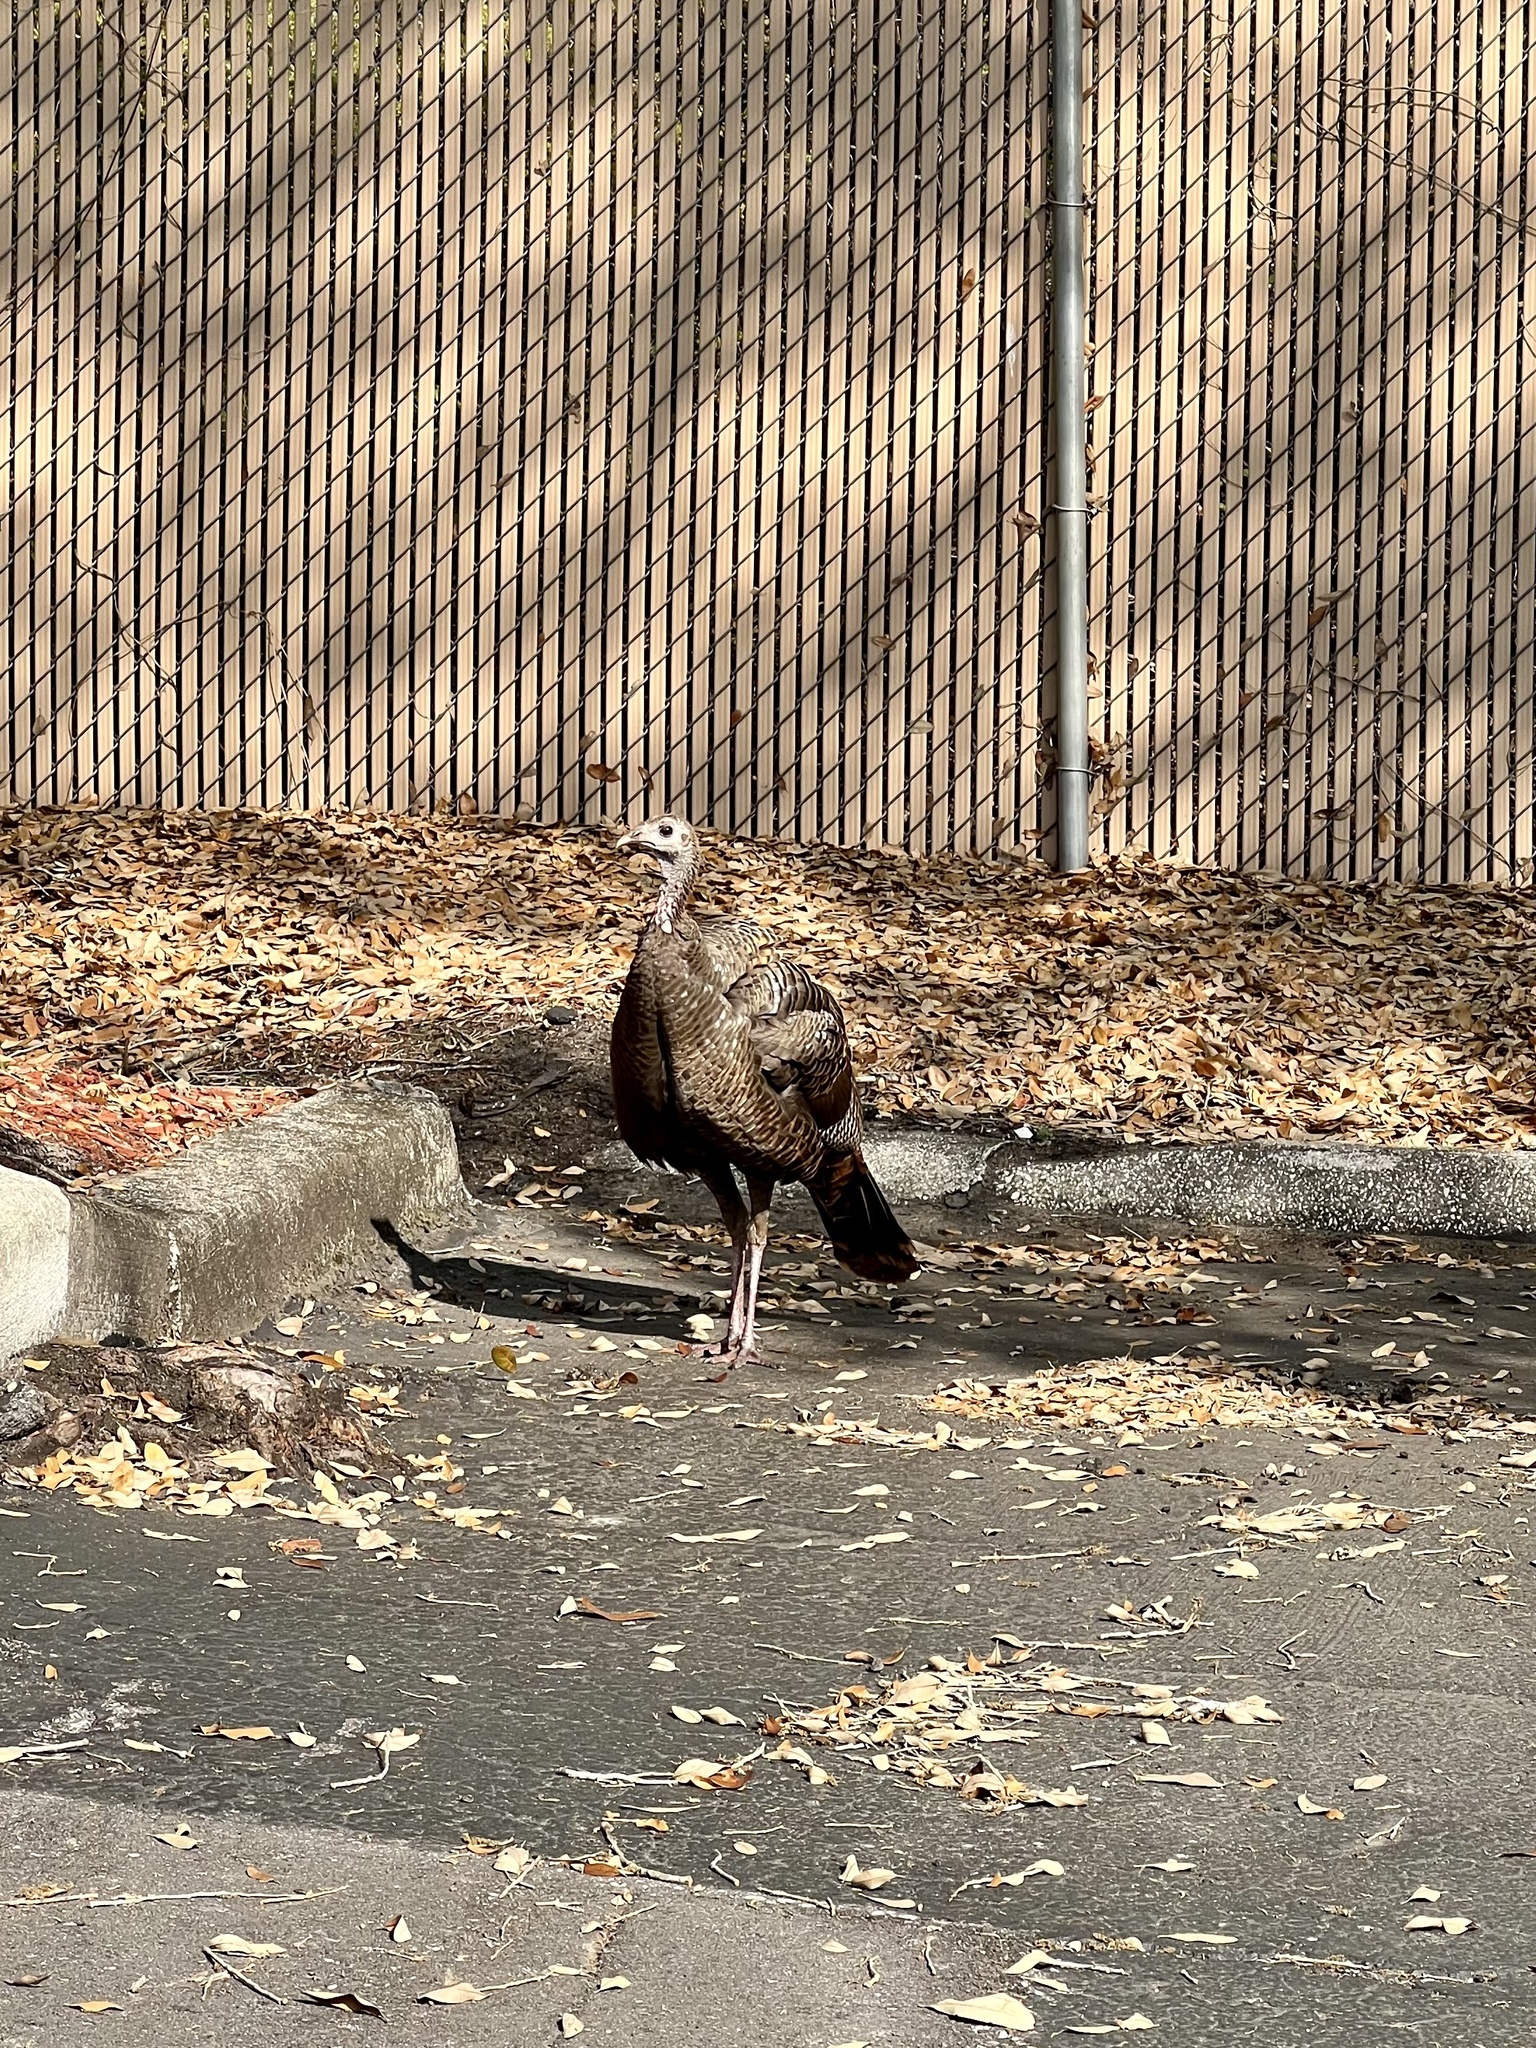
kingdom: Animalia
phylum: Chordata
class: Aves
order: Galliformes
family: Phasianidae
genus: Meleagris
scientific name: Meleagris gallopavo
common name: Wild turkey
